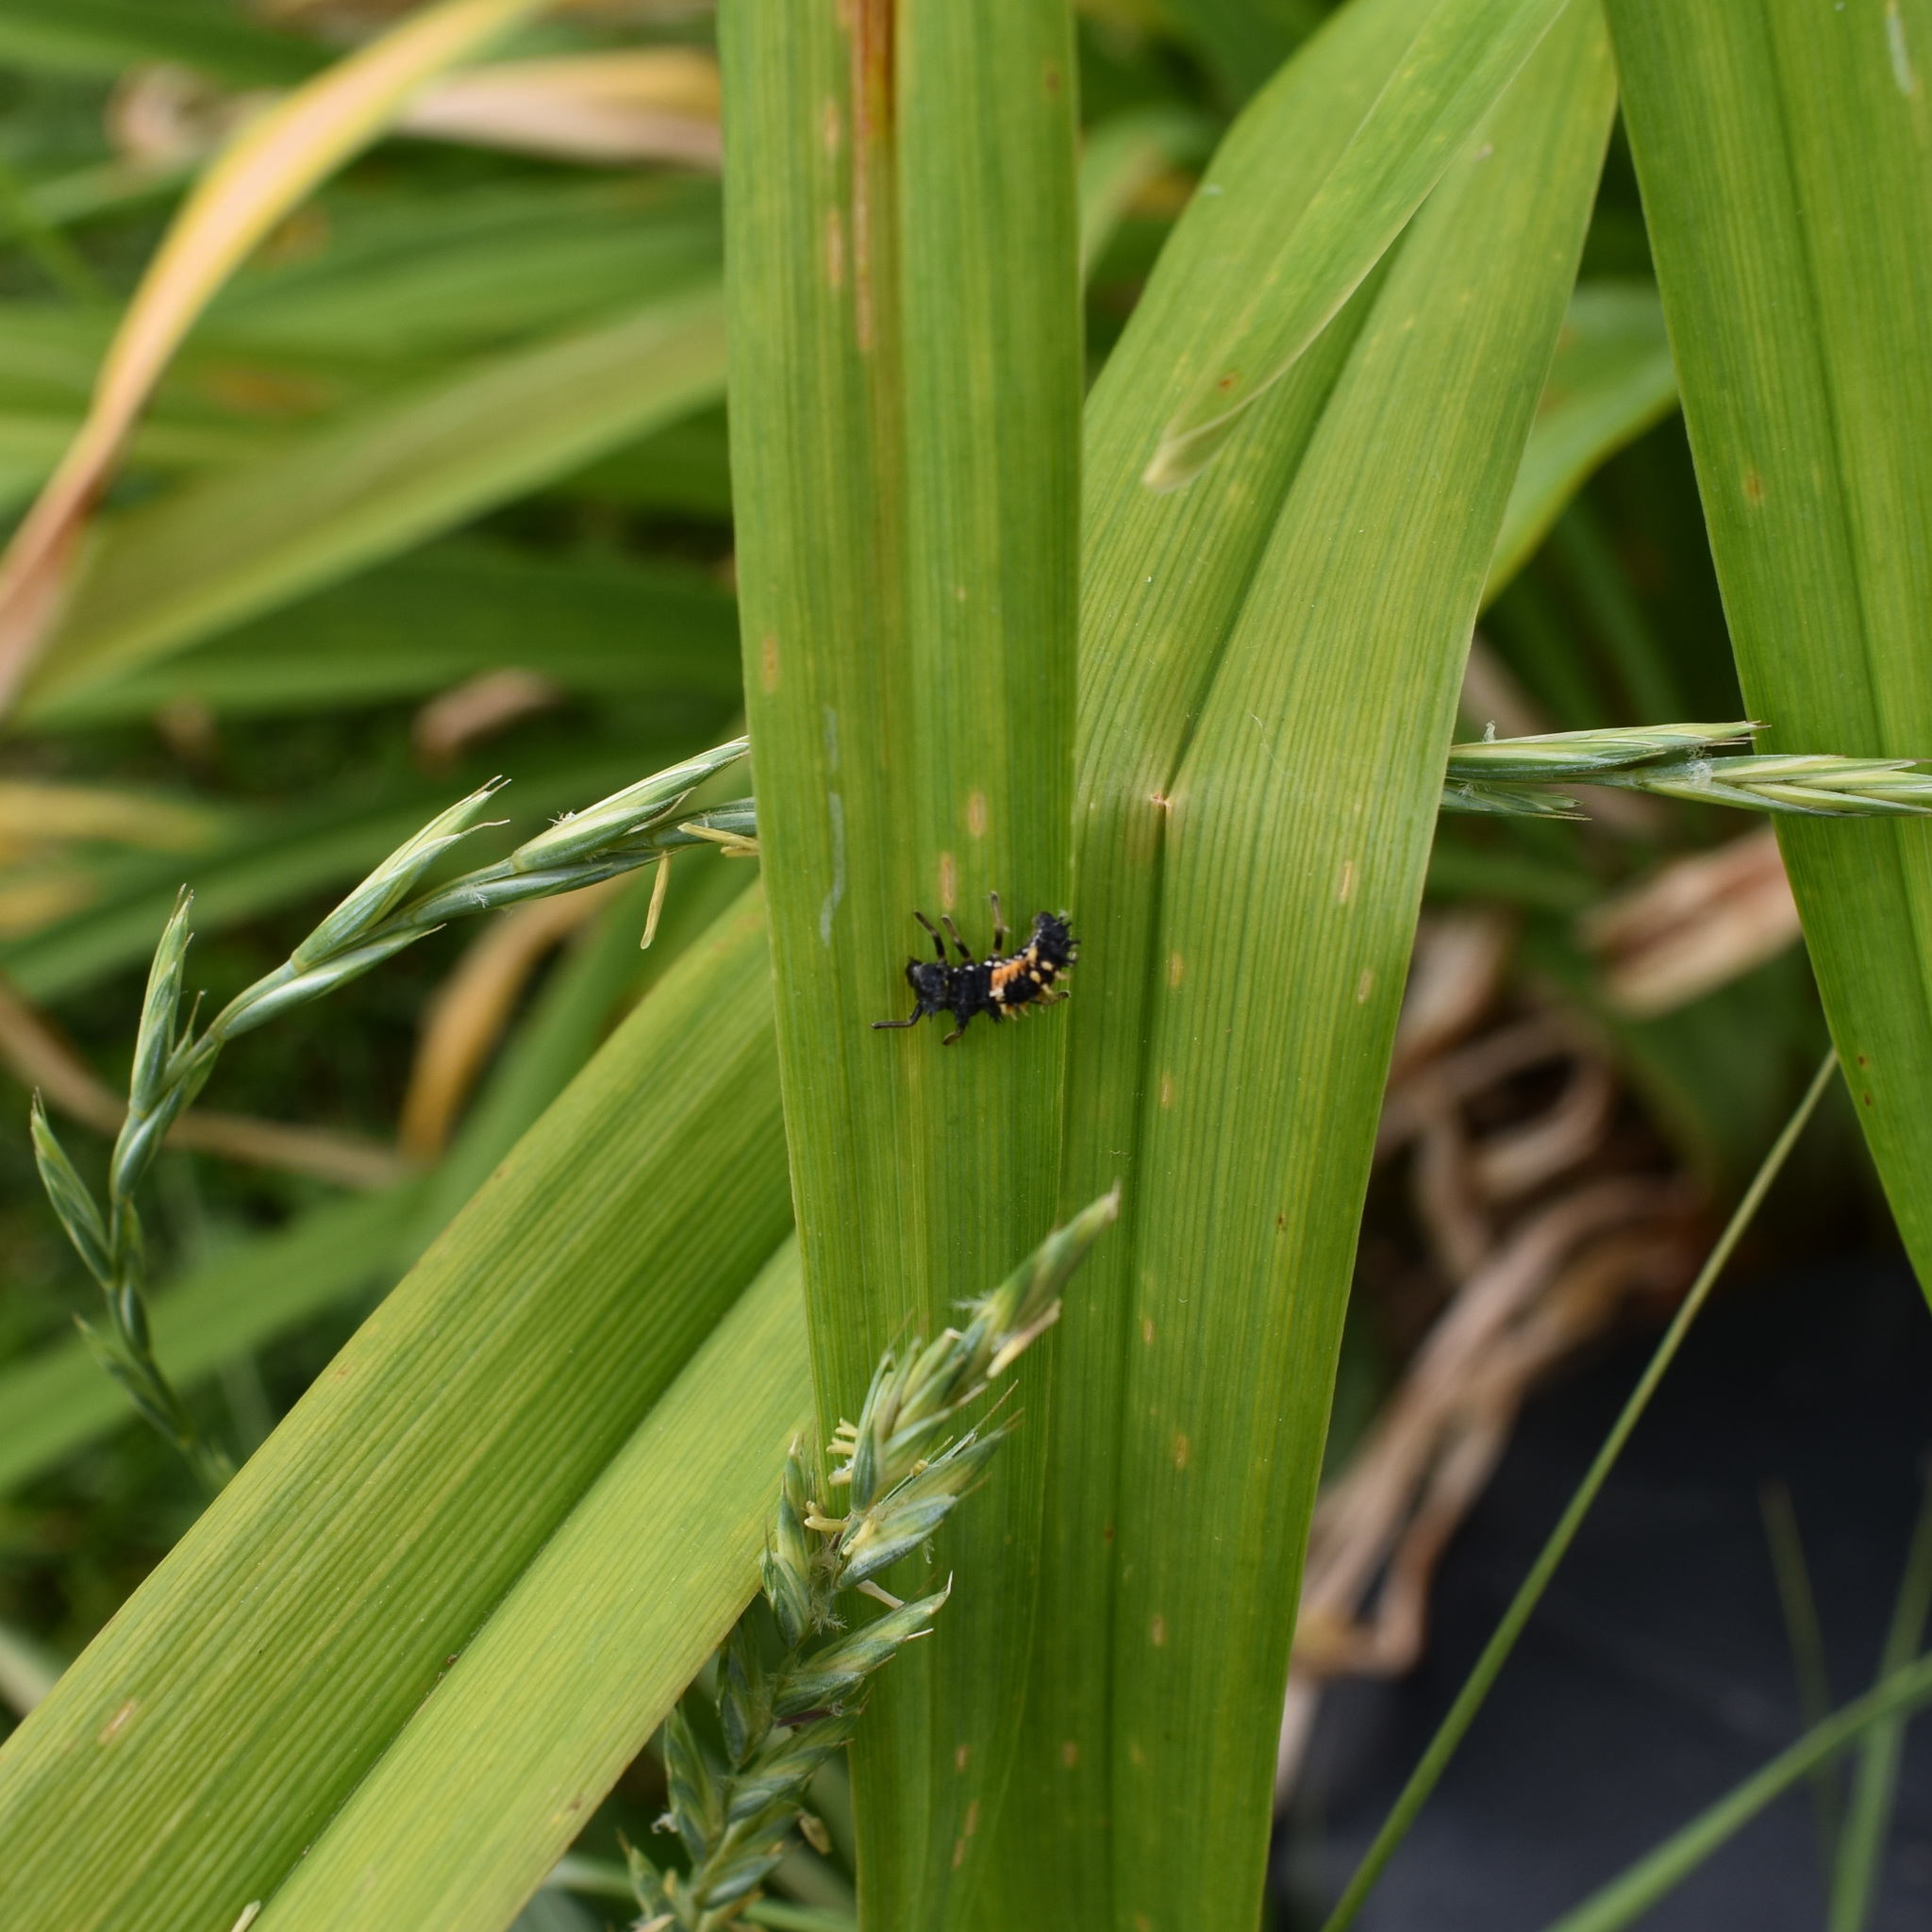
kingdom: Animalia
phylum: Arthropoda
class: Insecta
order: Coleoptera
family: Coccinellidae
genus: Harmonia
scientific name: Harmonia axyridis
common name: Harlequin ladybird
